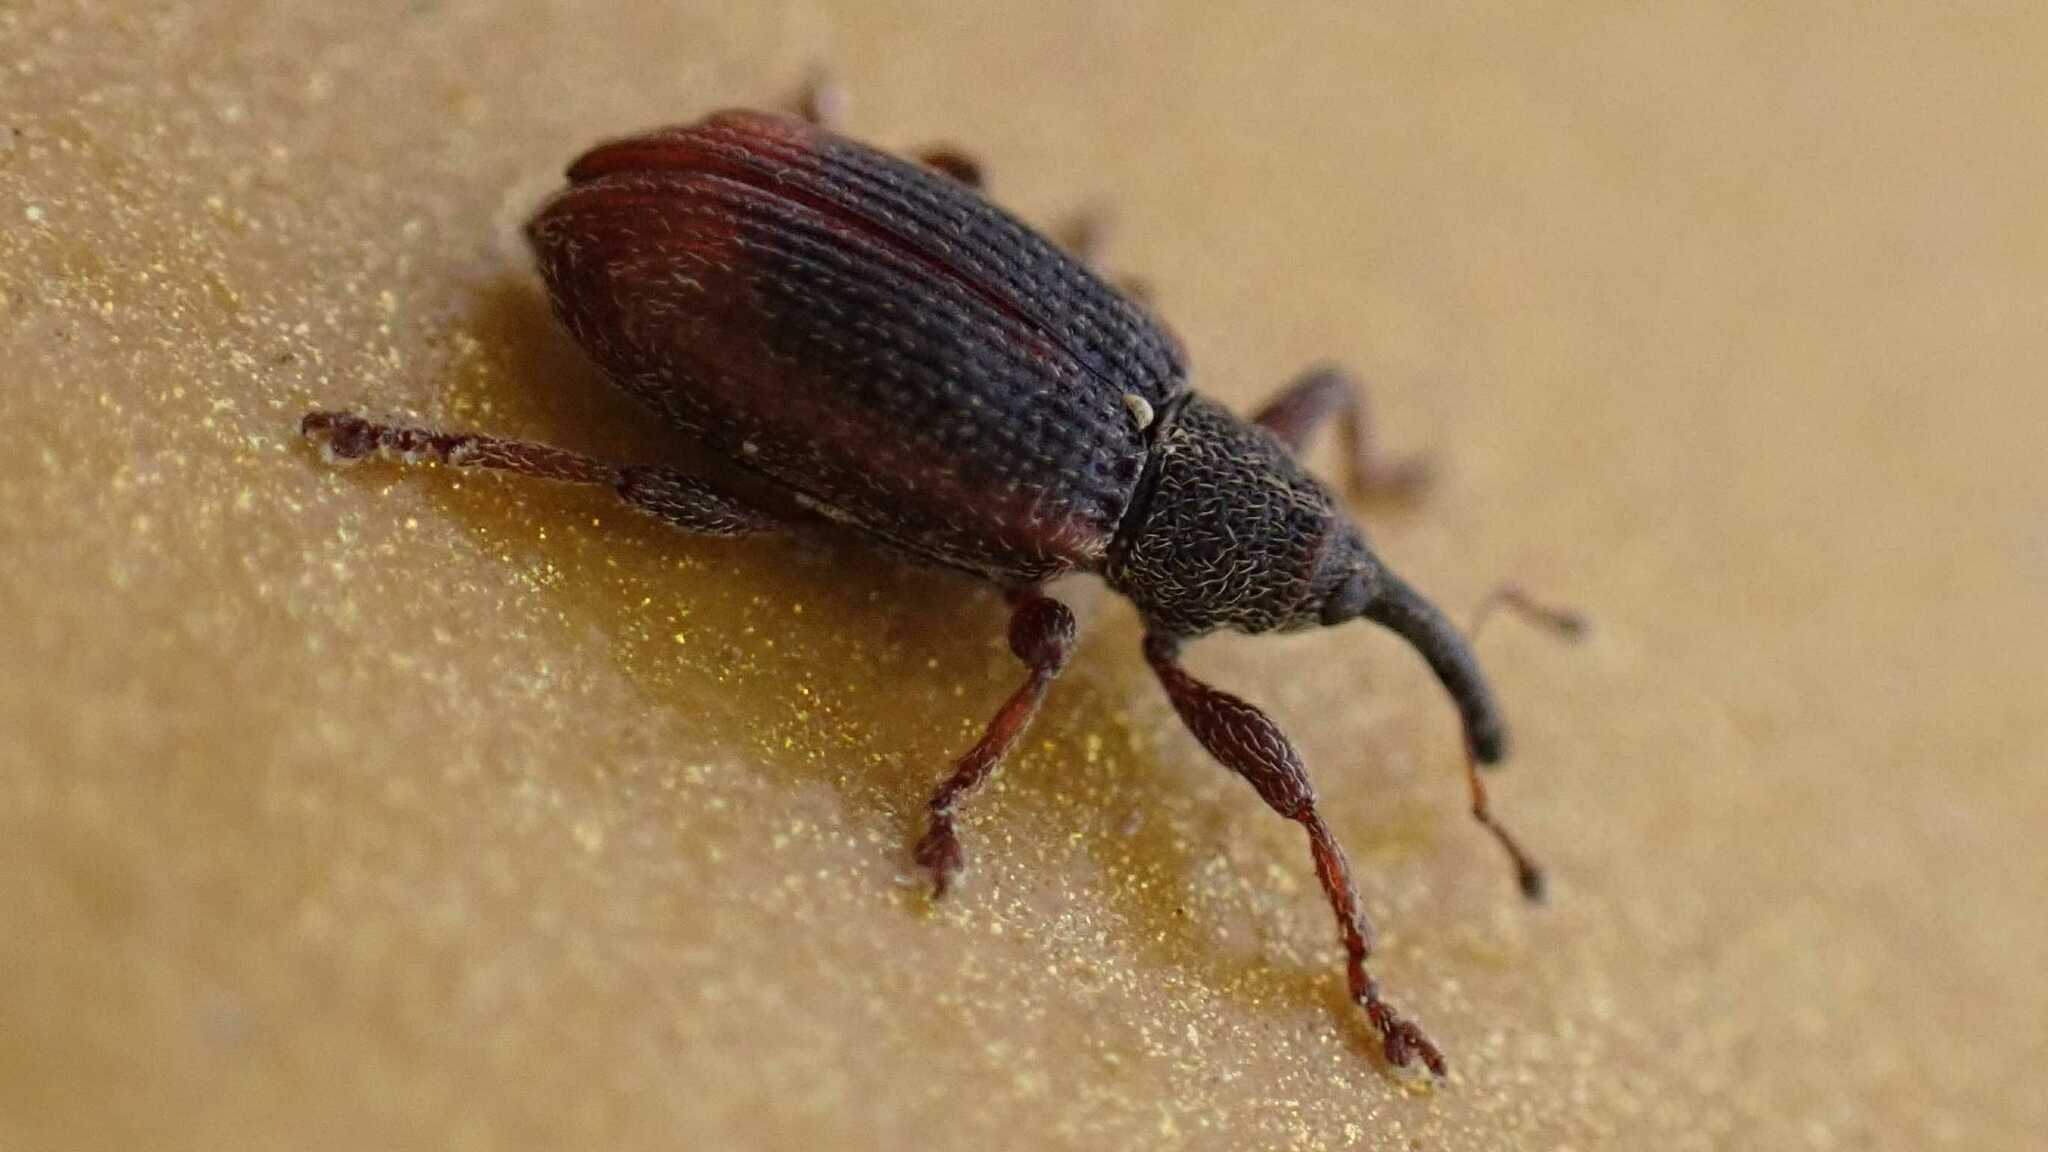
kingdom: Animalia
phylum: Arthropoda
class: Insecta
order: Coleoptera
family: Curculionidae
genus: Bradybatus
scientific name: Bradybatus kellneri
